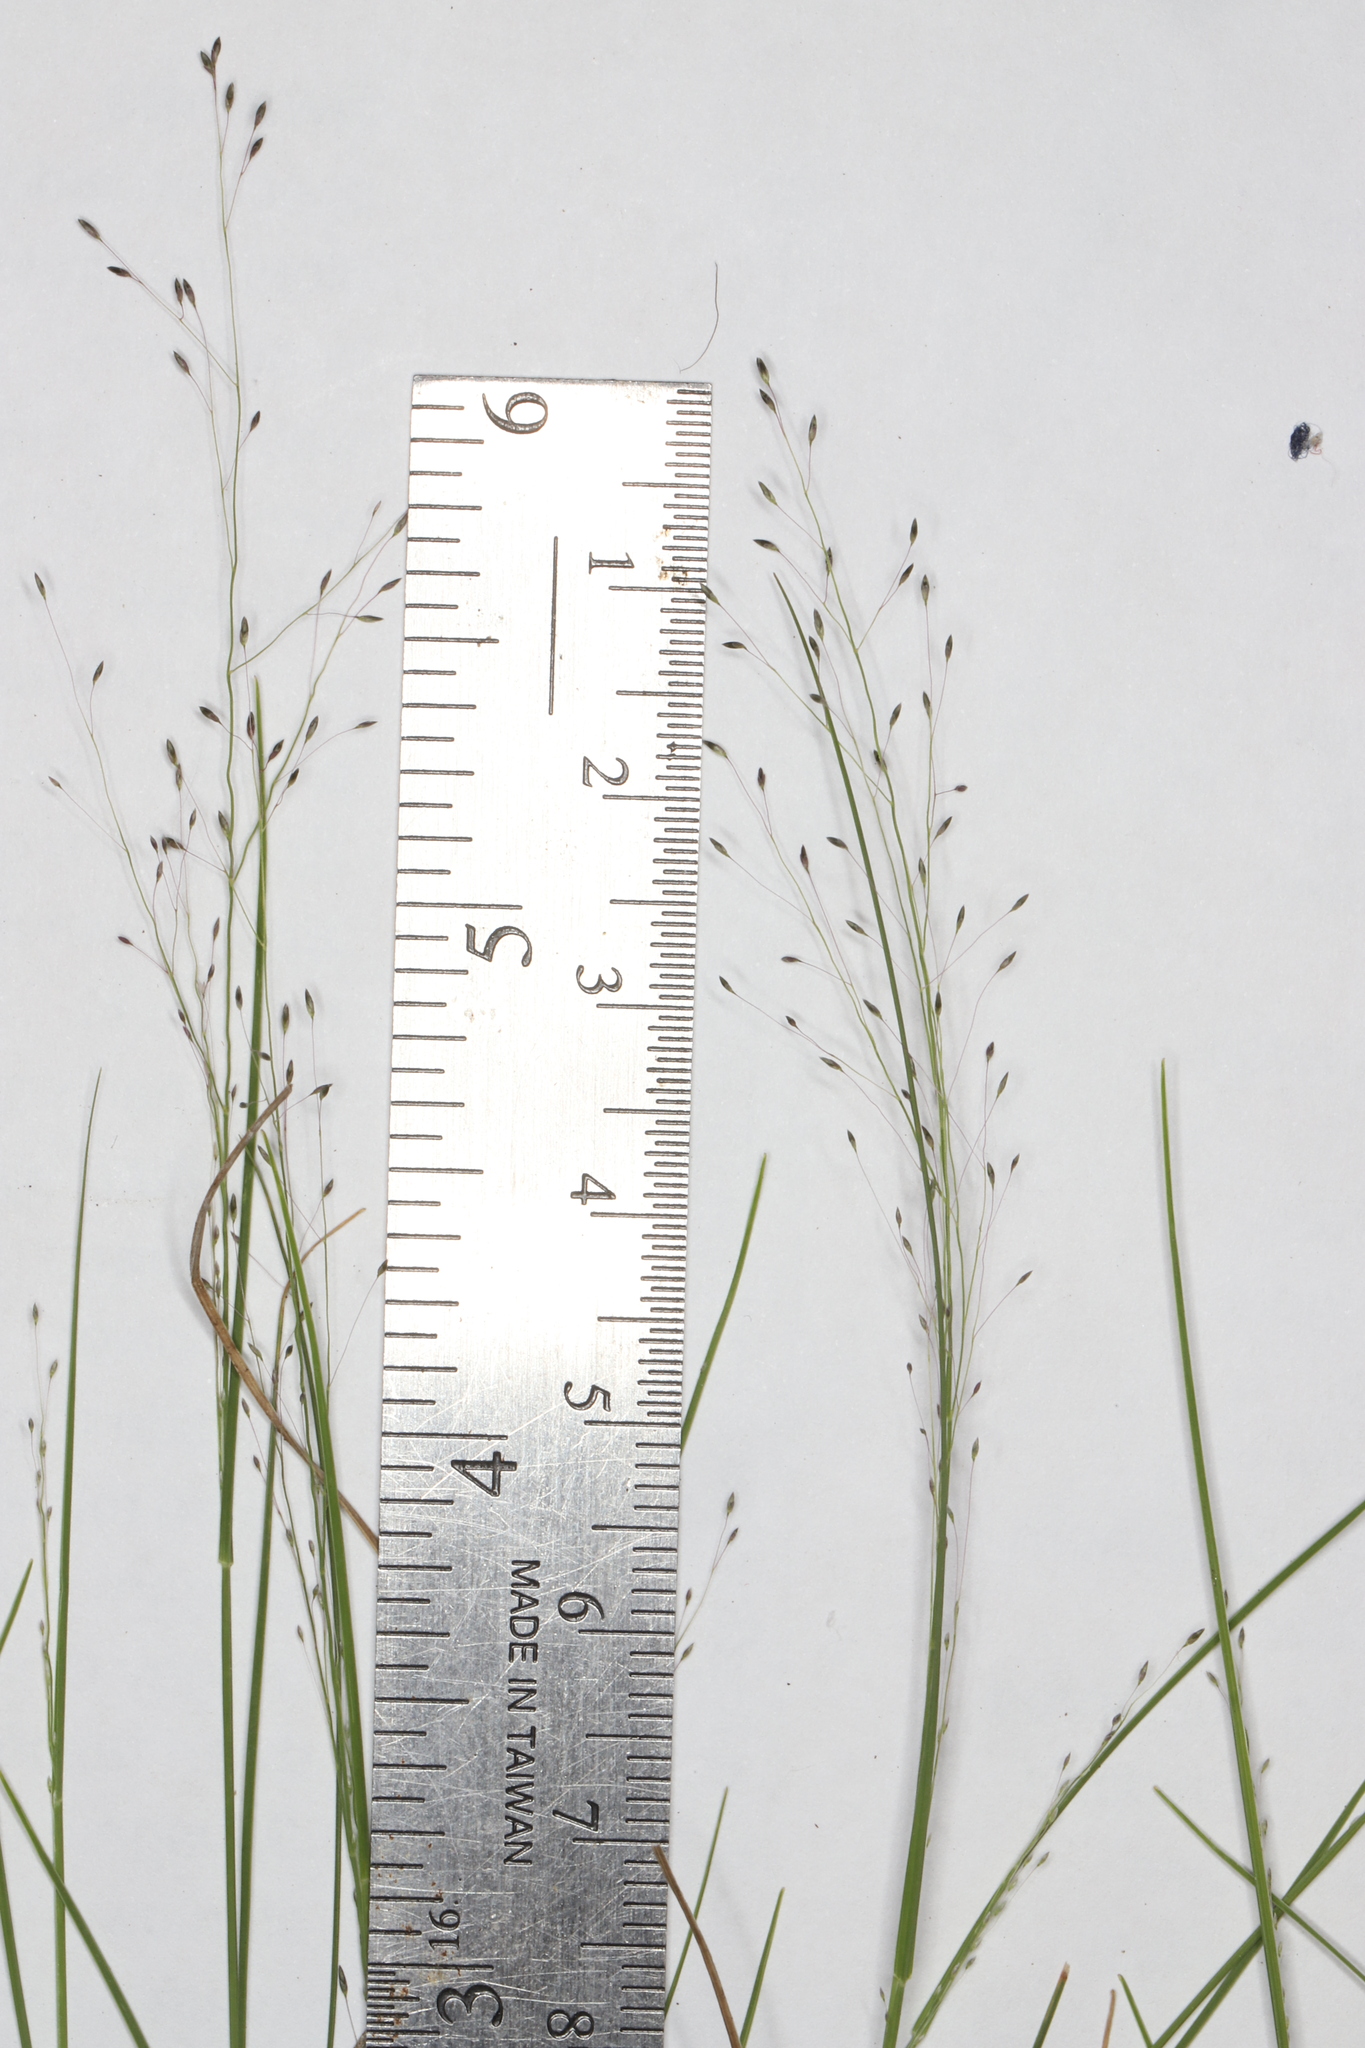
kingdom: Plantae
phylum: Tracheophyta
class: Liliopsida
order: Poales
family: Poaceae
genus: Muhlenbergia
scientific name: Muhlenbergia uniflora
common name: Bog muhly
